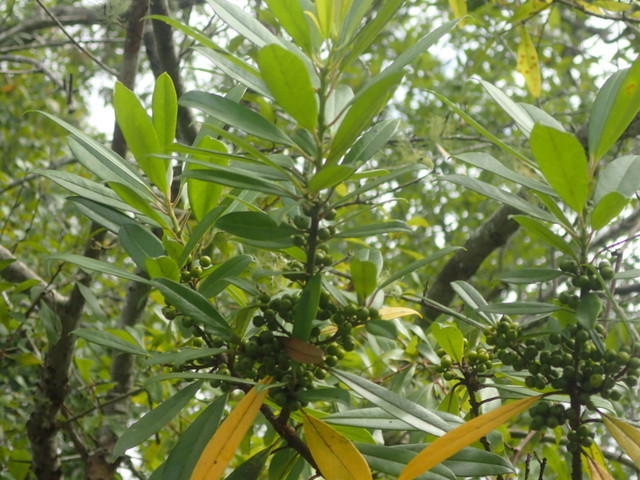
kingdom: Plantae
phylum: Tracheophyta
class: Magnoliopsida
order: Aquifoliales
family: Aquifoliaceae
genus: Ilex
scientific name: Ilex cassine
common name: Dahoon
